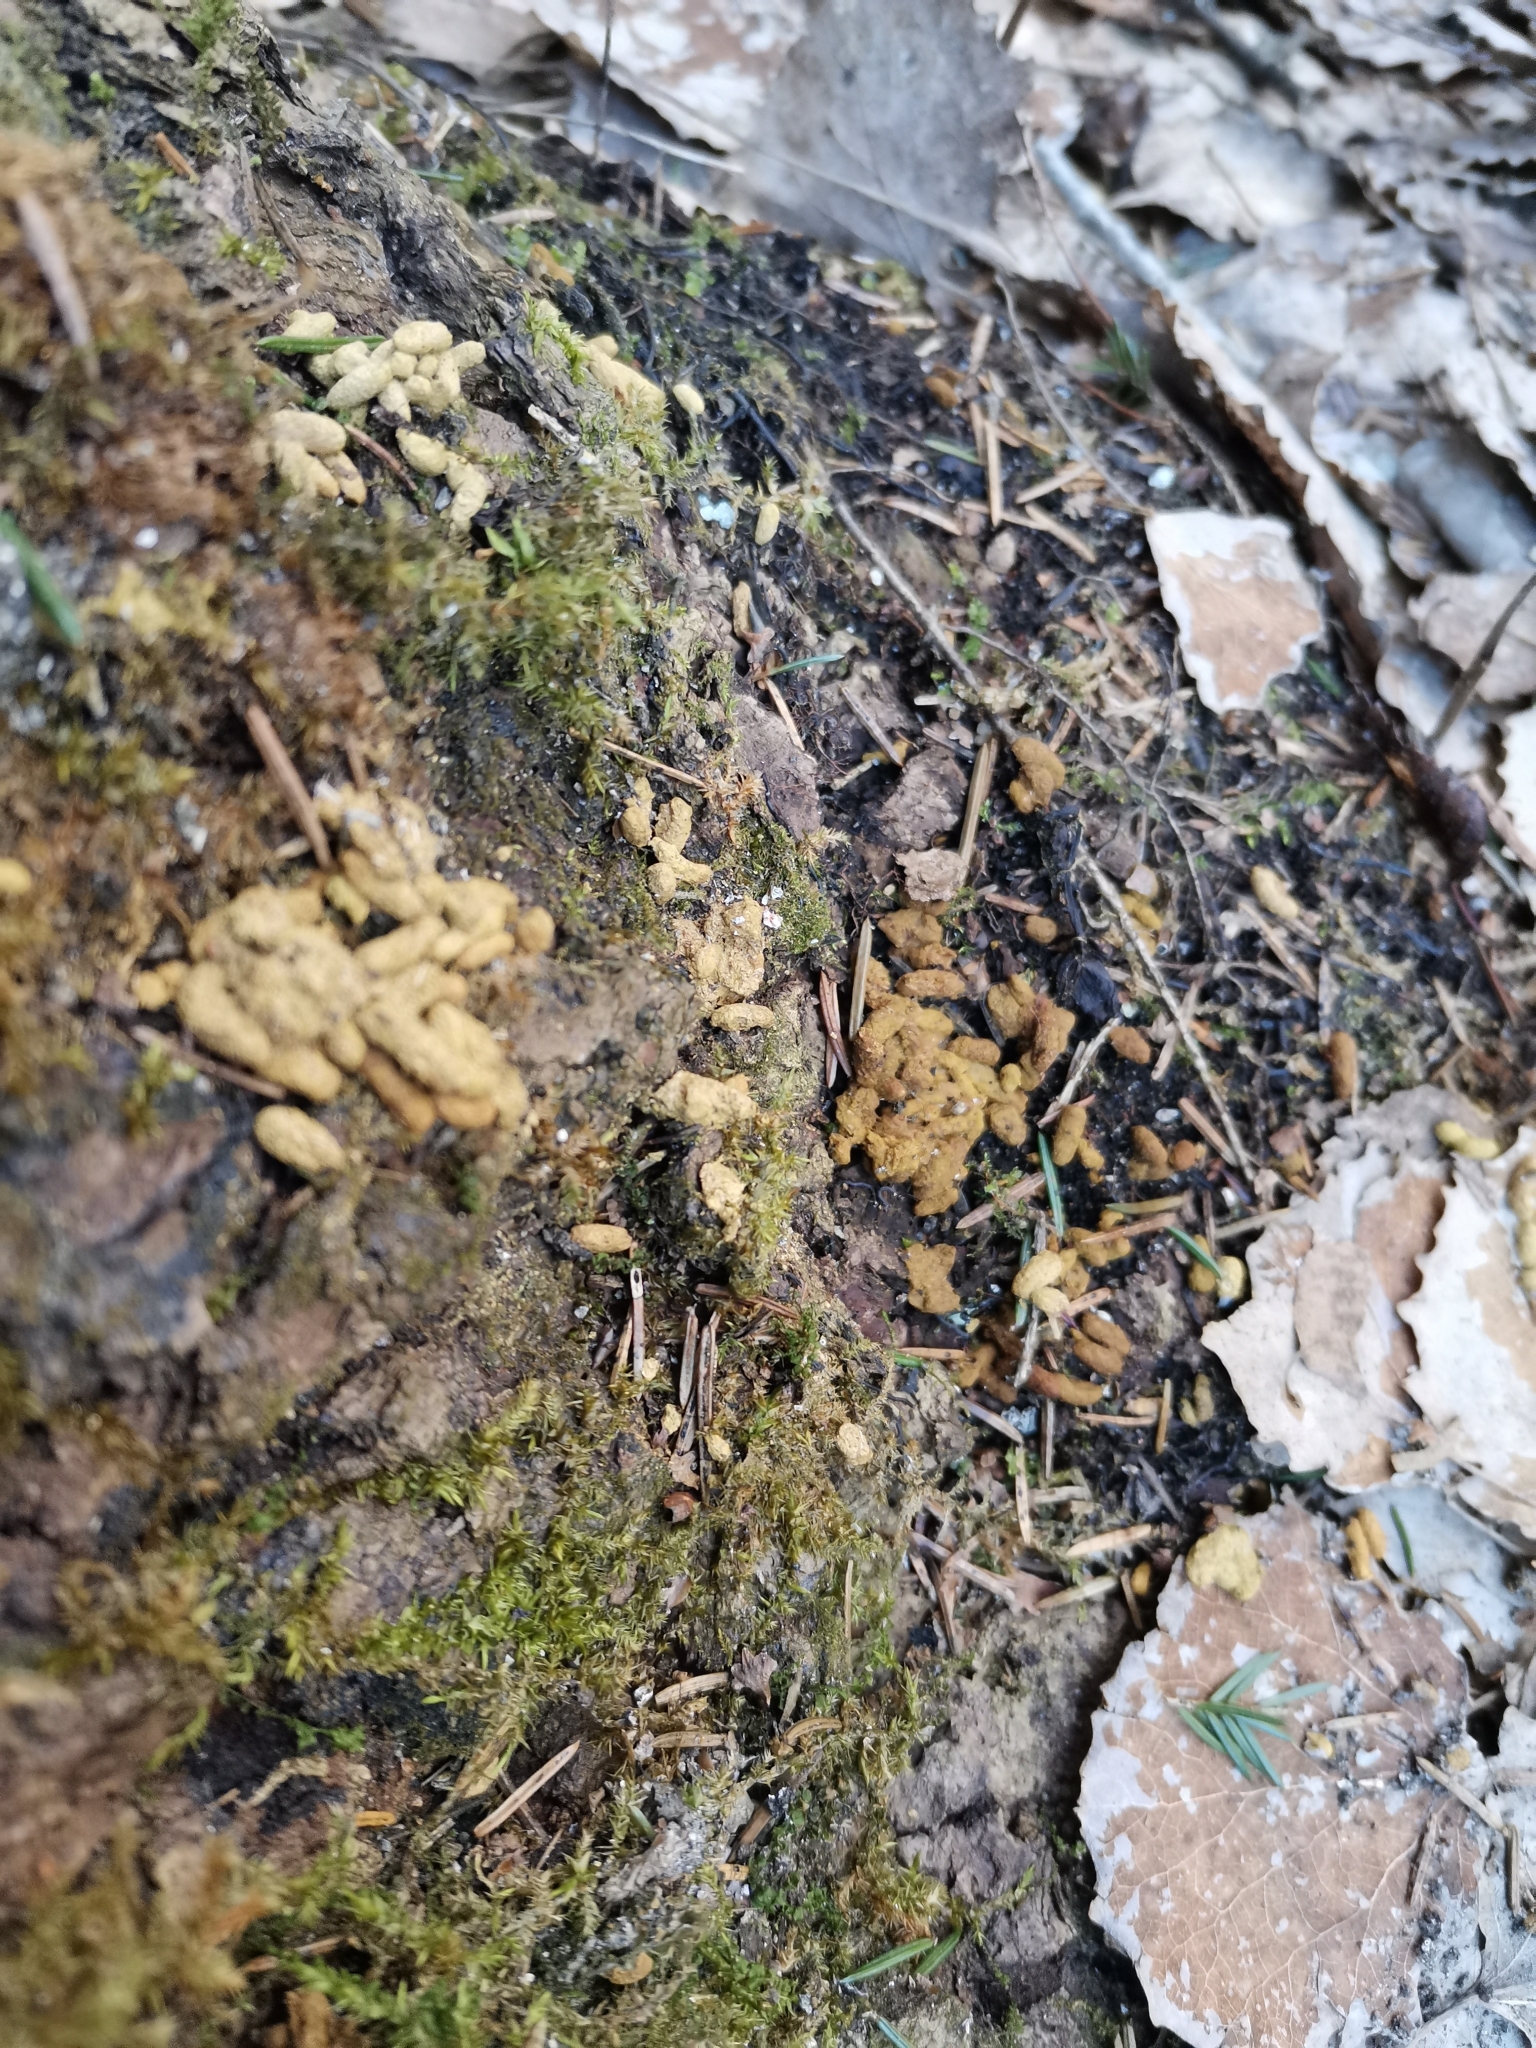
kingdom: Animalia
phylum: Chordata
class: Mammalia
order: Rodentia
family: Sciuridae
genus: Pteromys
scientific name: Pteromys volans
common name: Siberian flying squirrel
